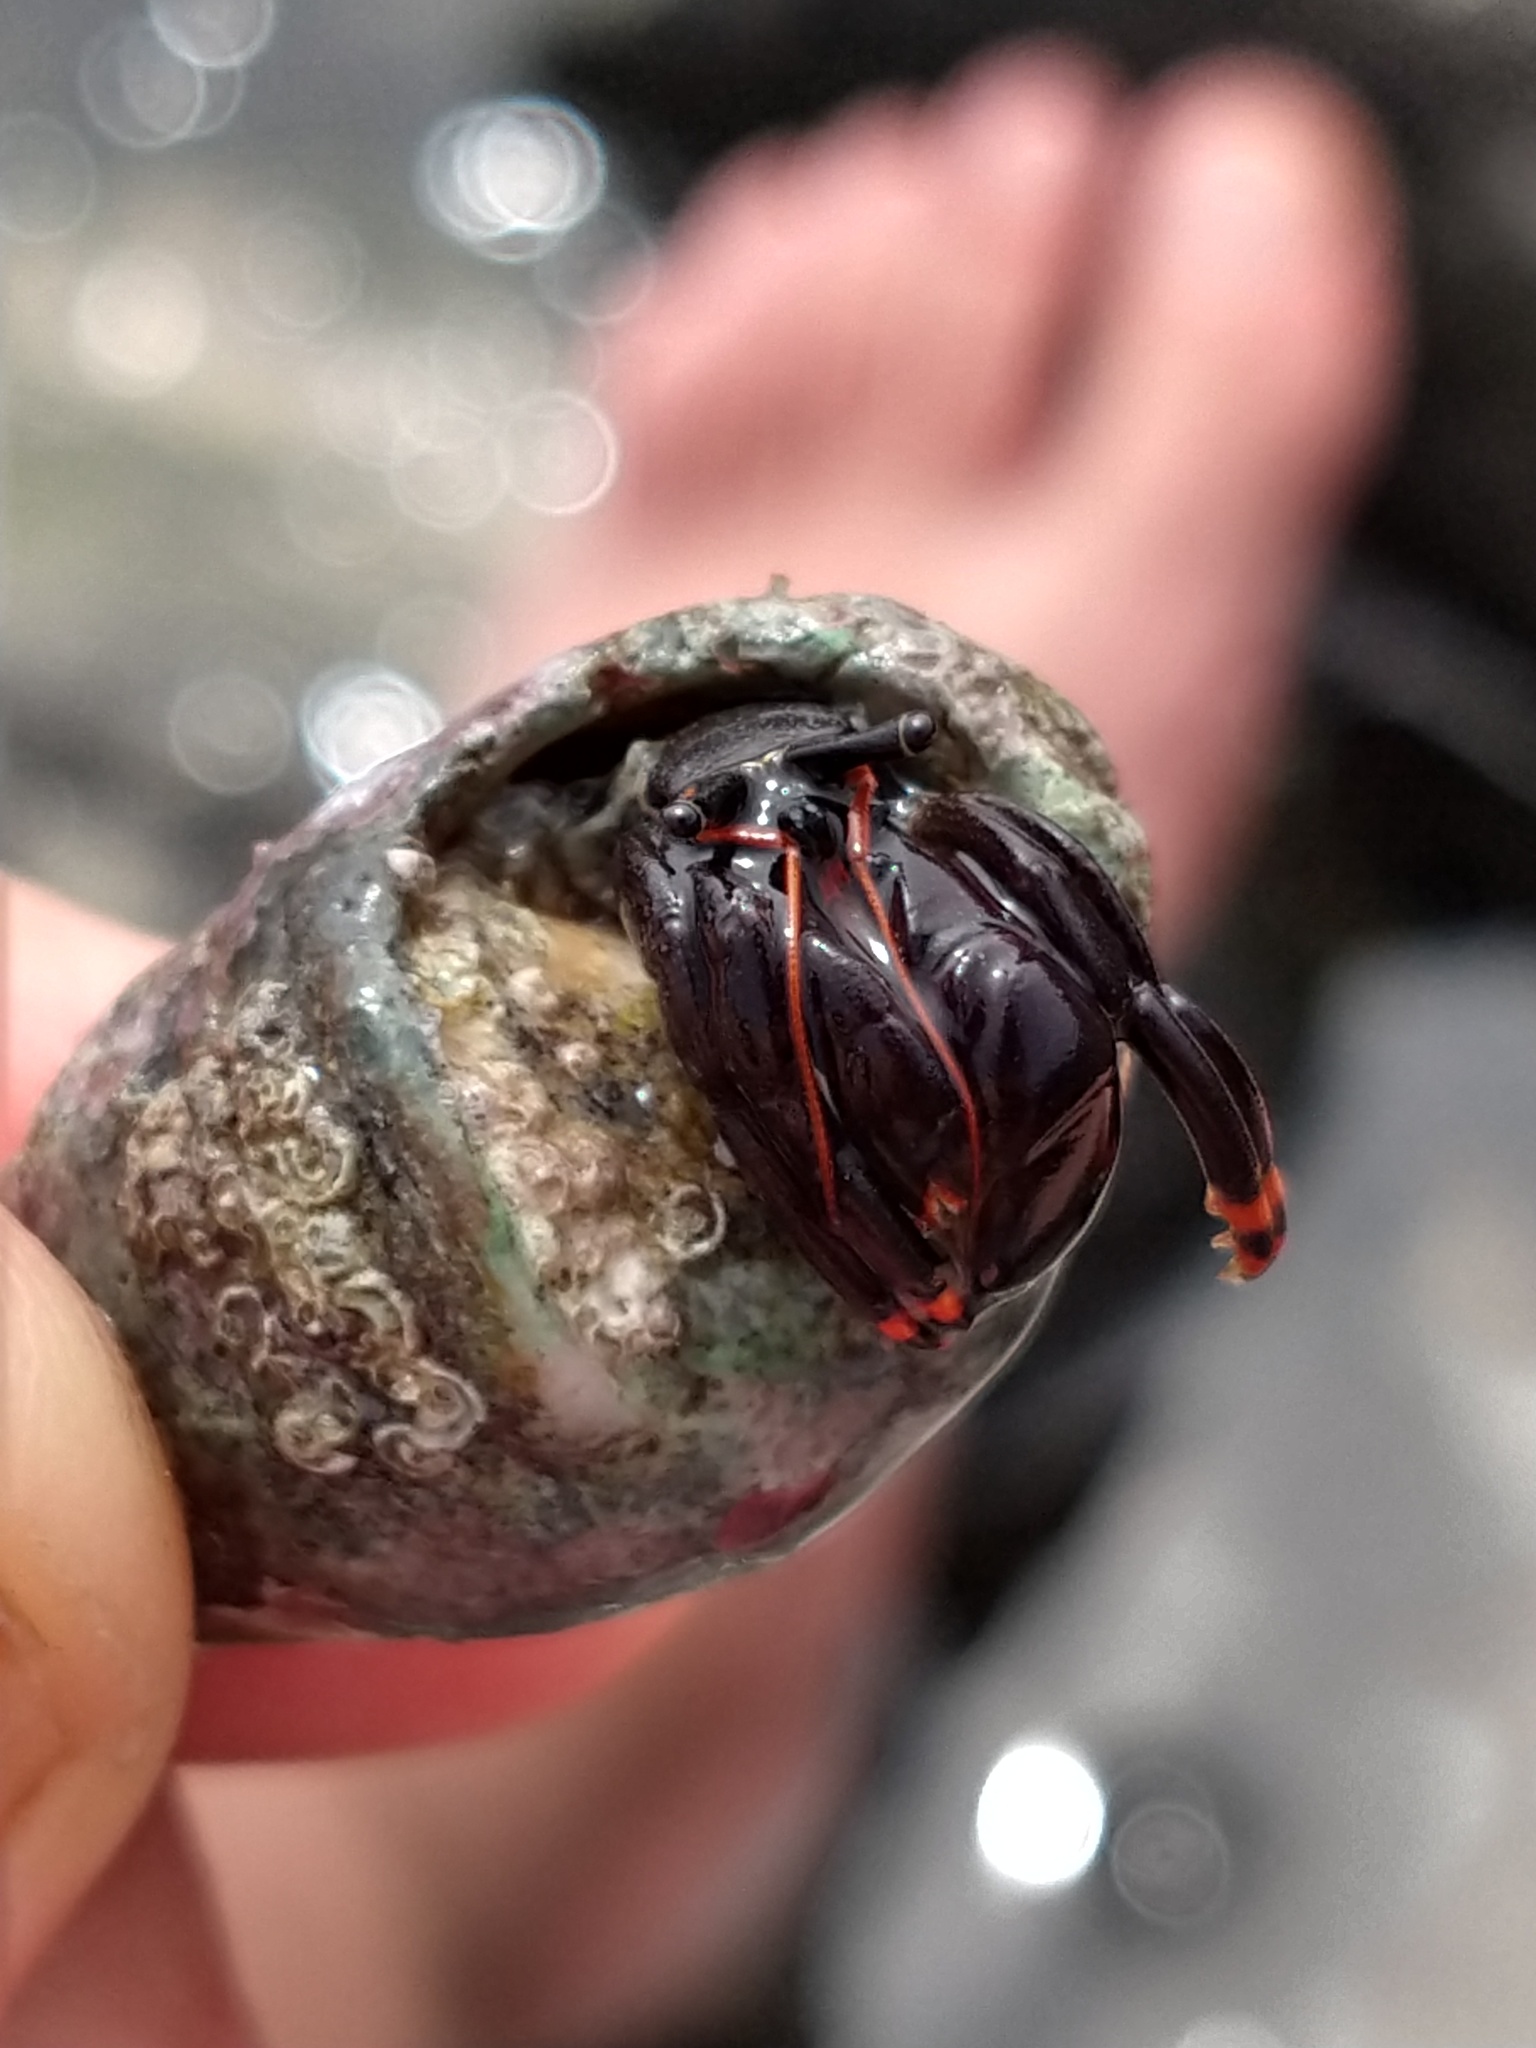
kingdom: Animalia
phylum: Arthropoda
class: Malacostraca
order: Decapoda
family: Diogenidae
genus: Calcinus
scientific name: Calcinus explorator
